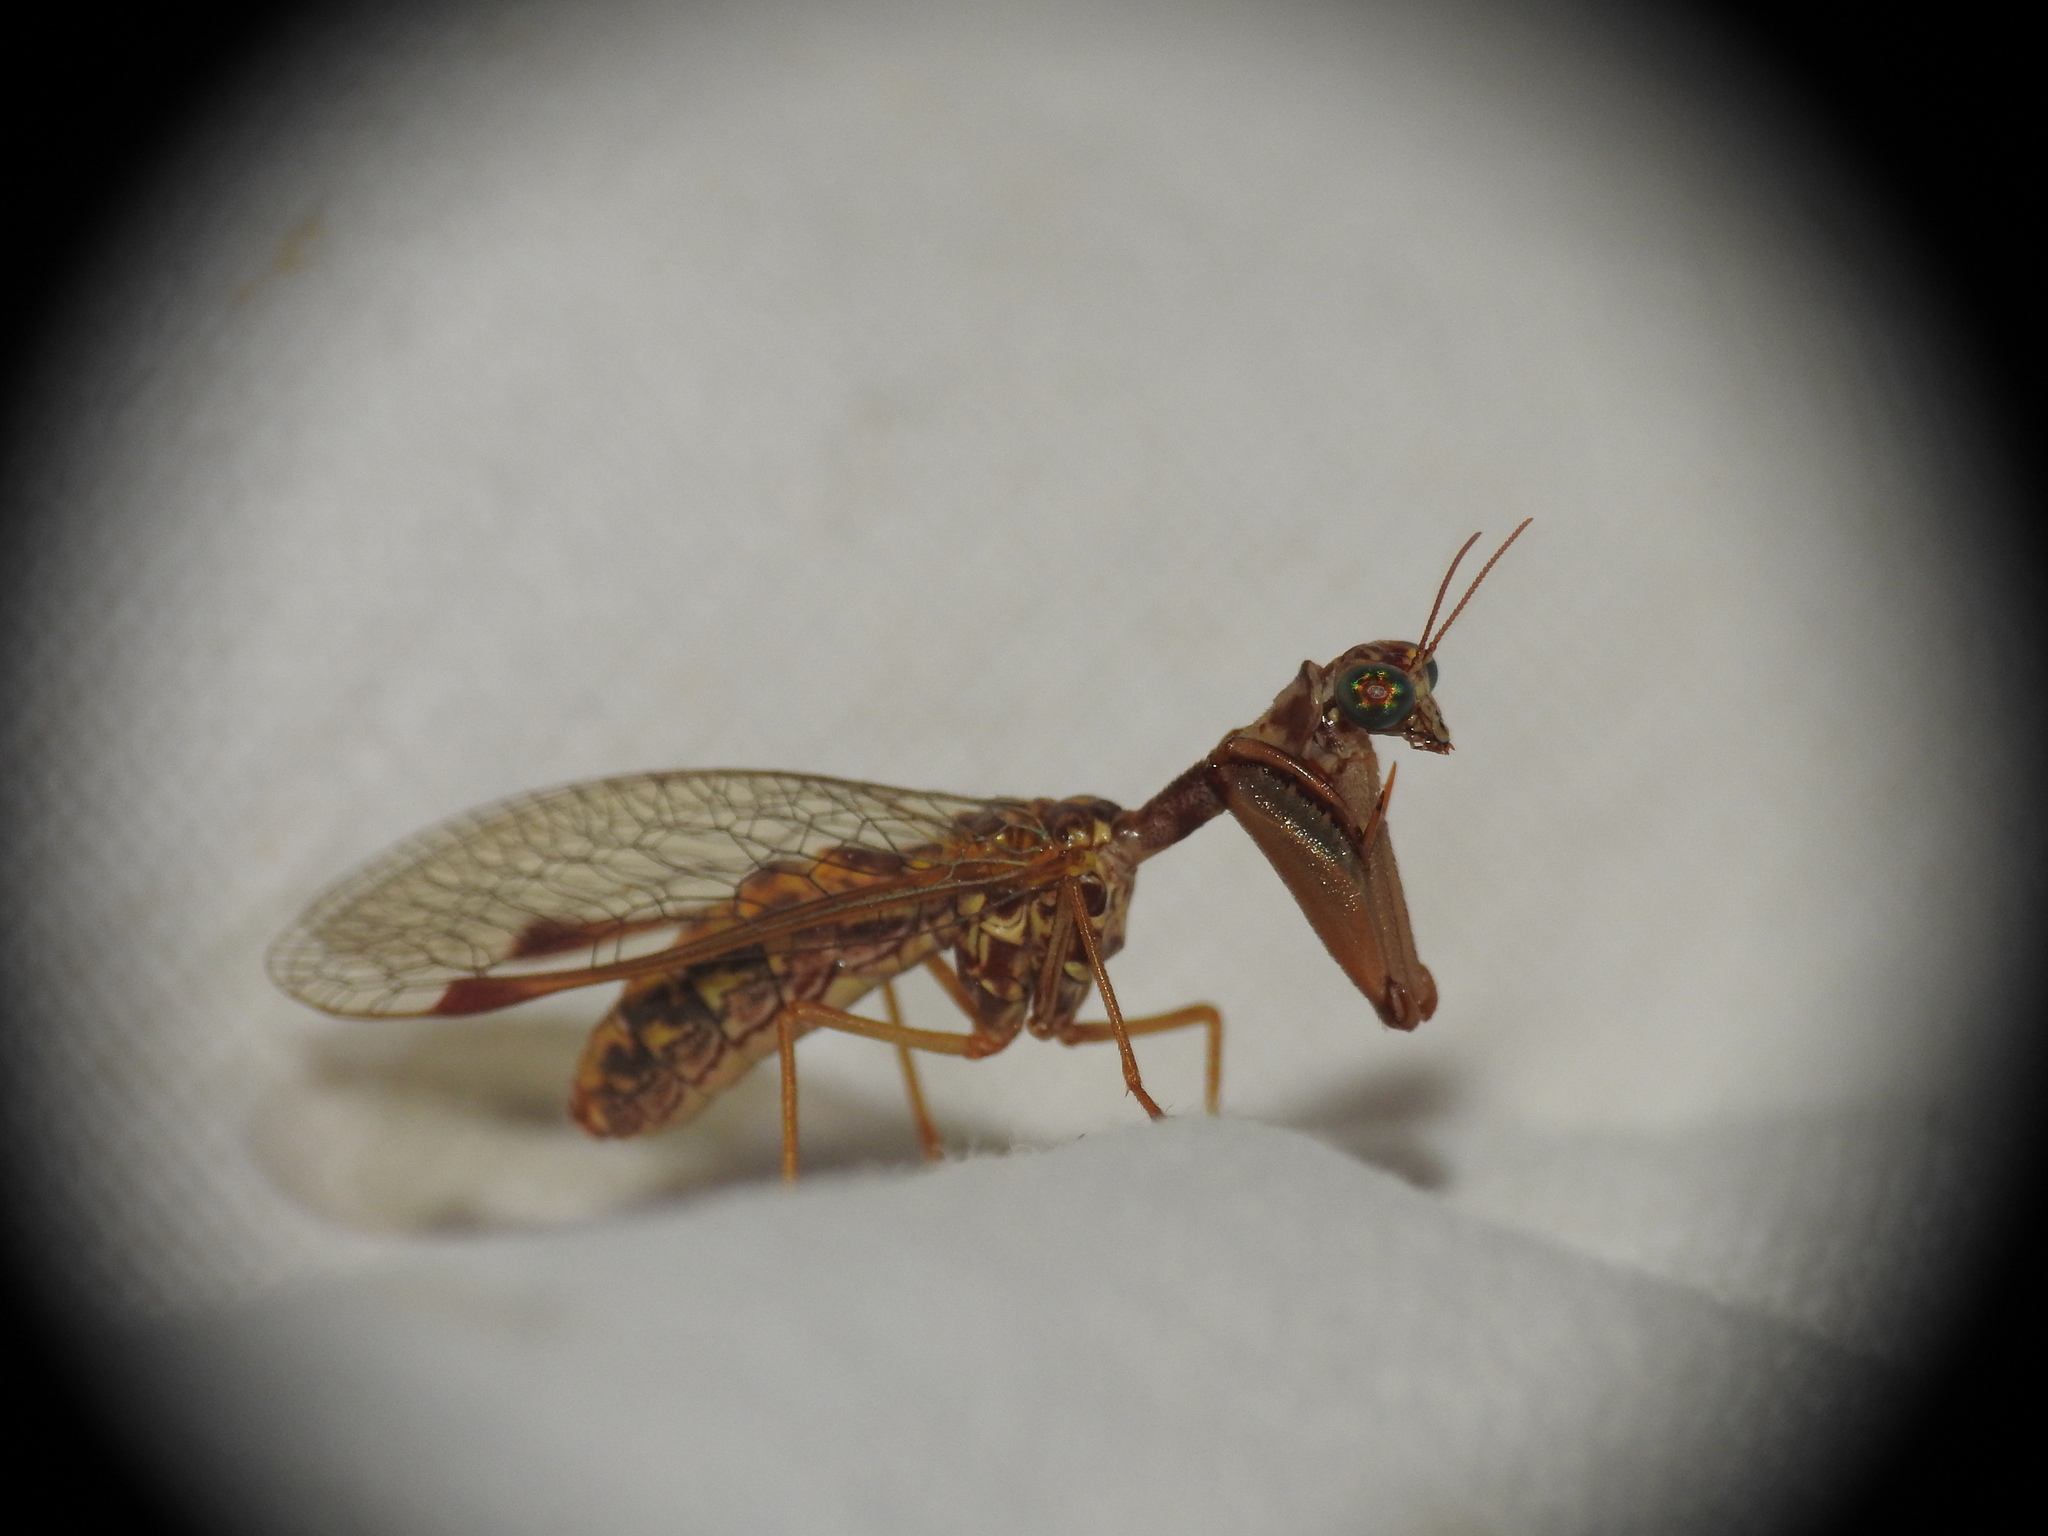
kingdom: Animalia
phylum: Arthropoda
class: Insecta
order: Neuroptera
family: Mantispidae
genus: Mantispa
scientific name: Mantispa styriaca
